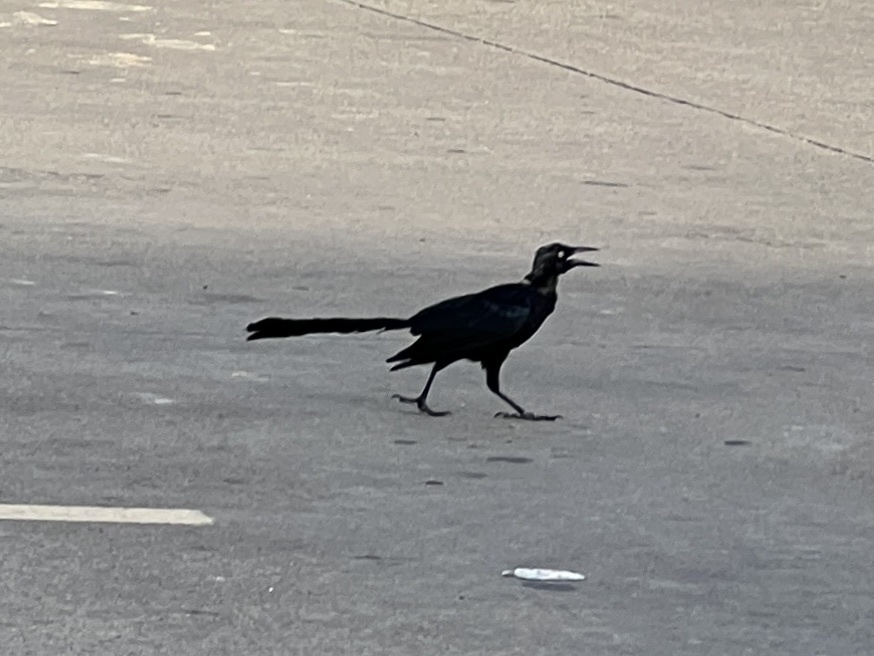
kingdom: Animalia
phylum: Chordata
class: Aves
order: Passeriformes
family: Icteridae
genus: Quiscalus
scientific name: Quiscalus mexicanus
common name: Great-tailed grackle
